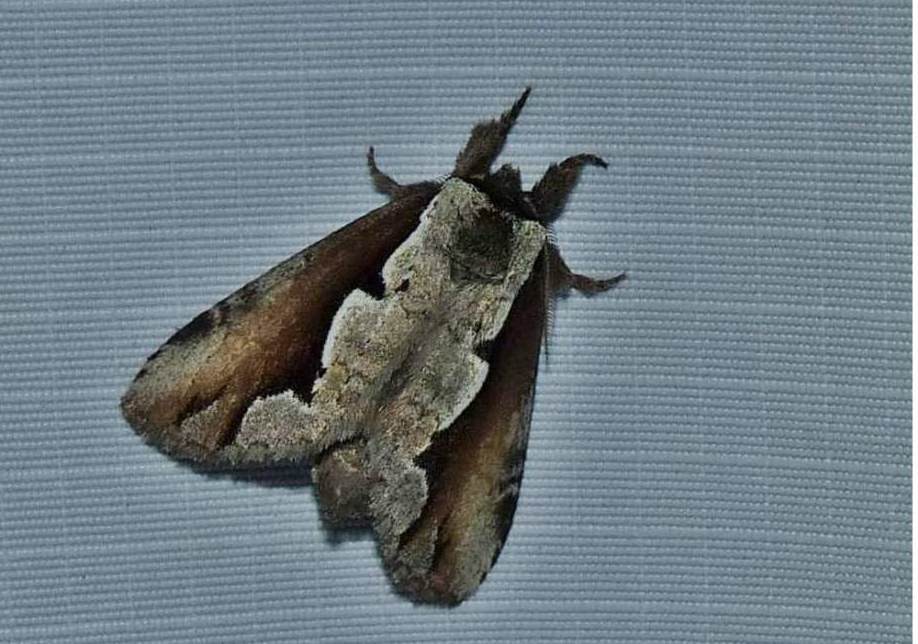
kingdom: Animalia
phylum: Arthropoda
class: Insecta
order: Lepidoptera
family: Notodontidae
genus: Nerice
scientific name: Nerice bidentata
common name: Double-toothed prominent
